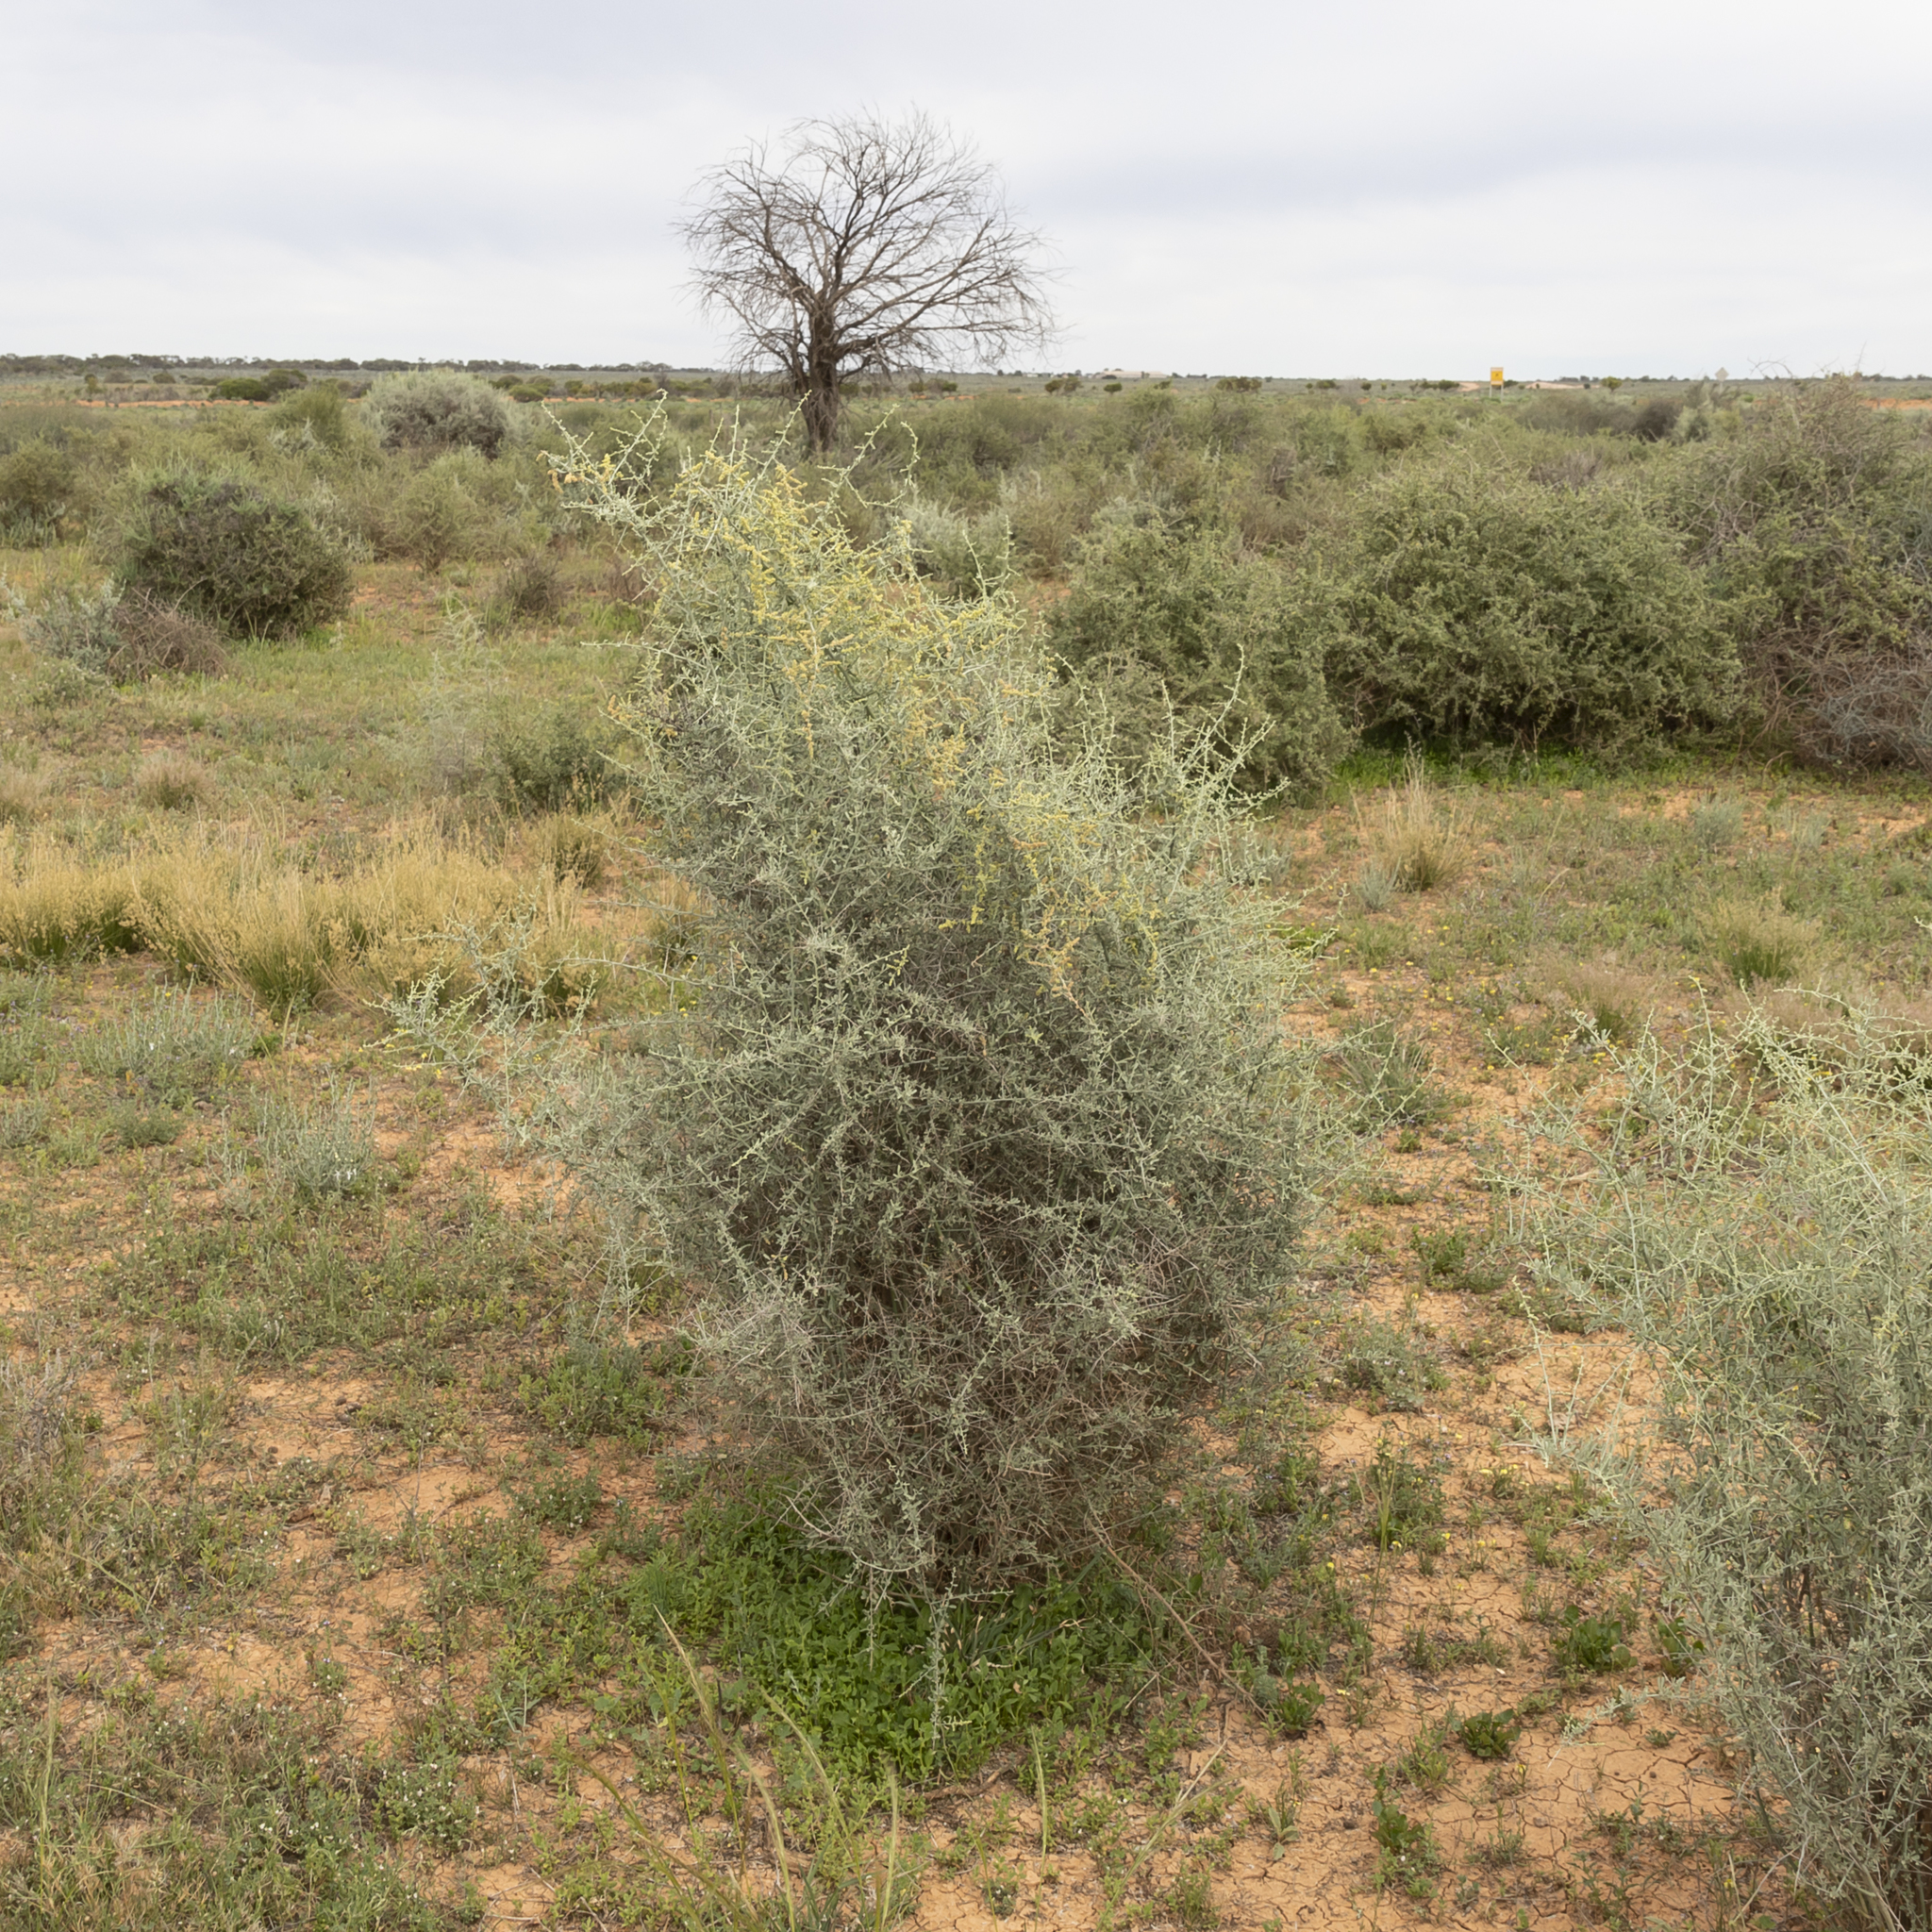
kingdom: Plantae
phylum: Tracheophyta
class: Magnoliopsida
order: Caryophyllales
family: Amaranthaceae
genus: Chenopodium
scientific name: Chenopodium nitrariaceum
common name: Nitre goosefoot
